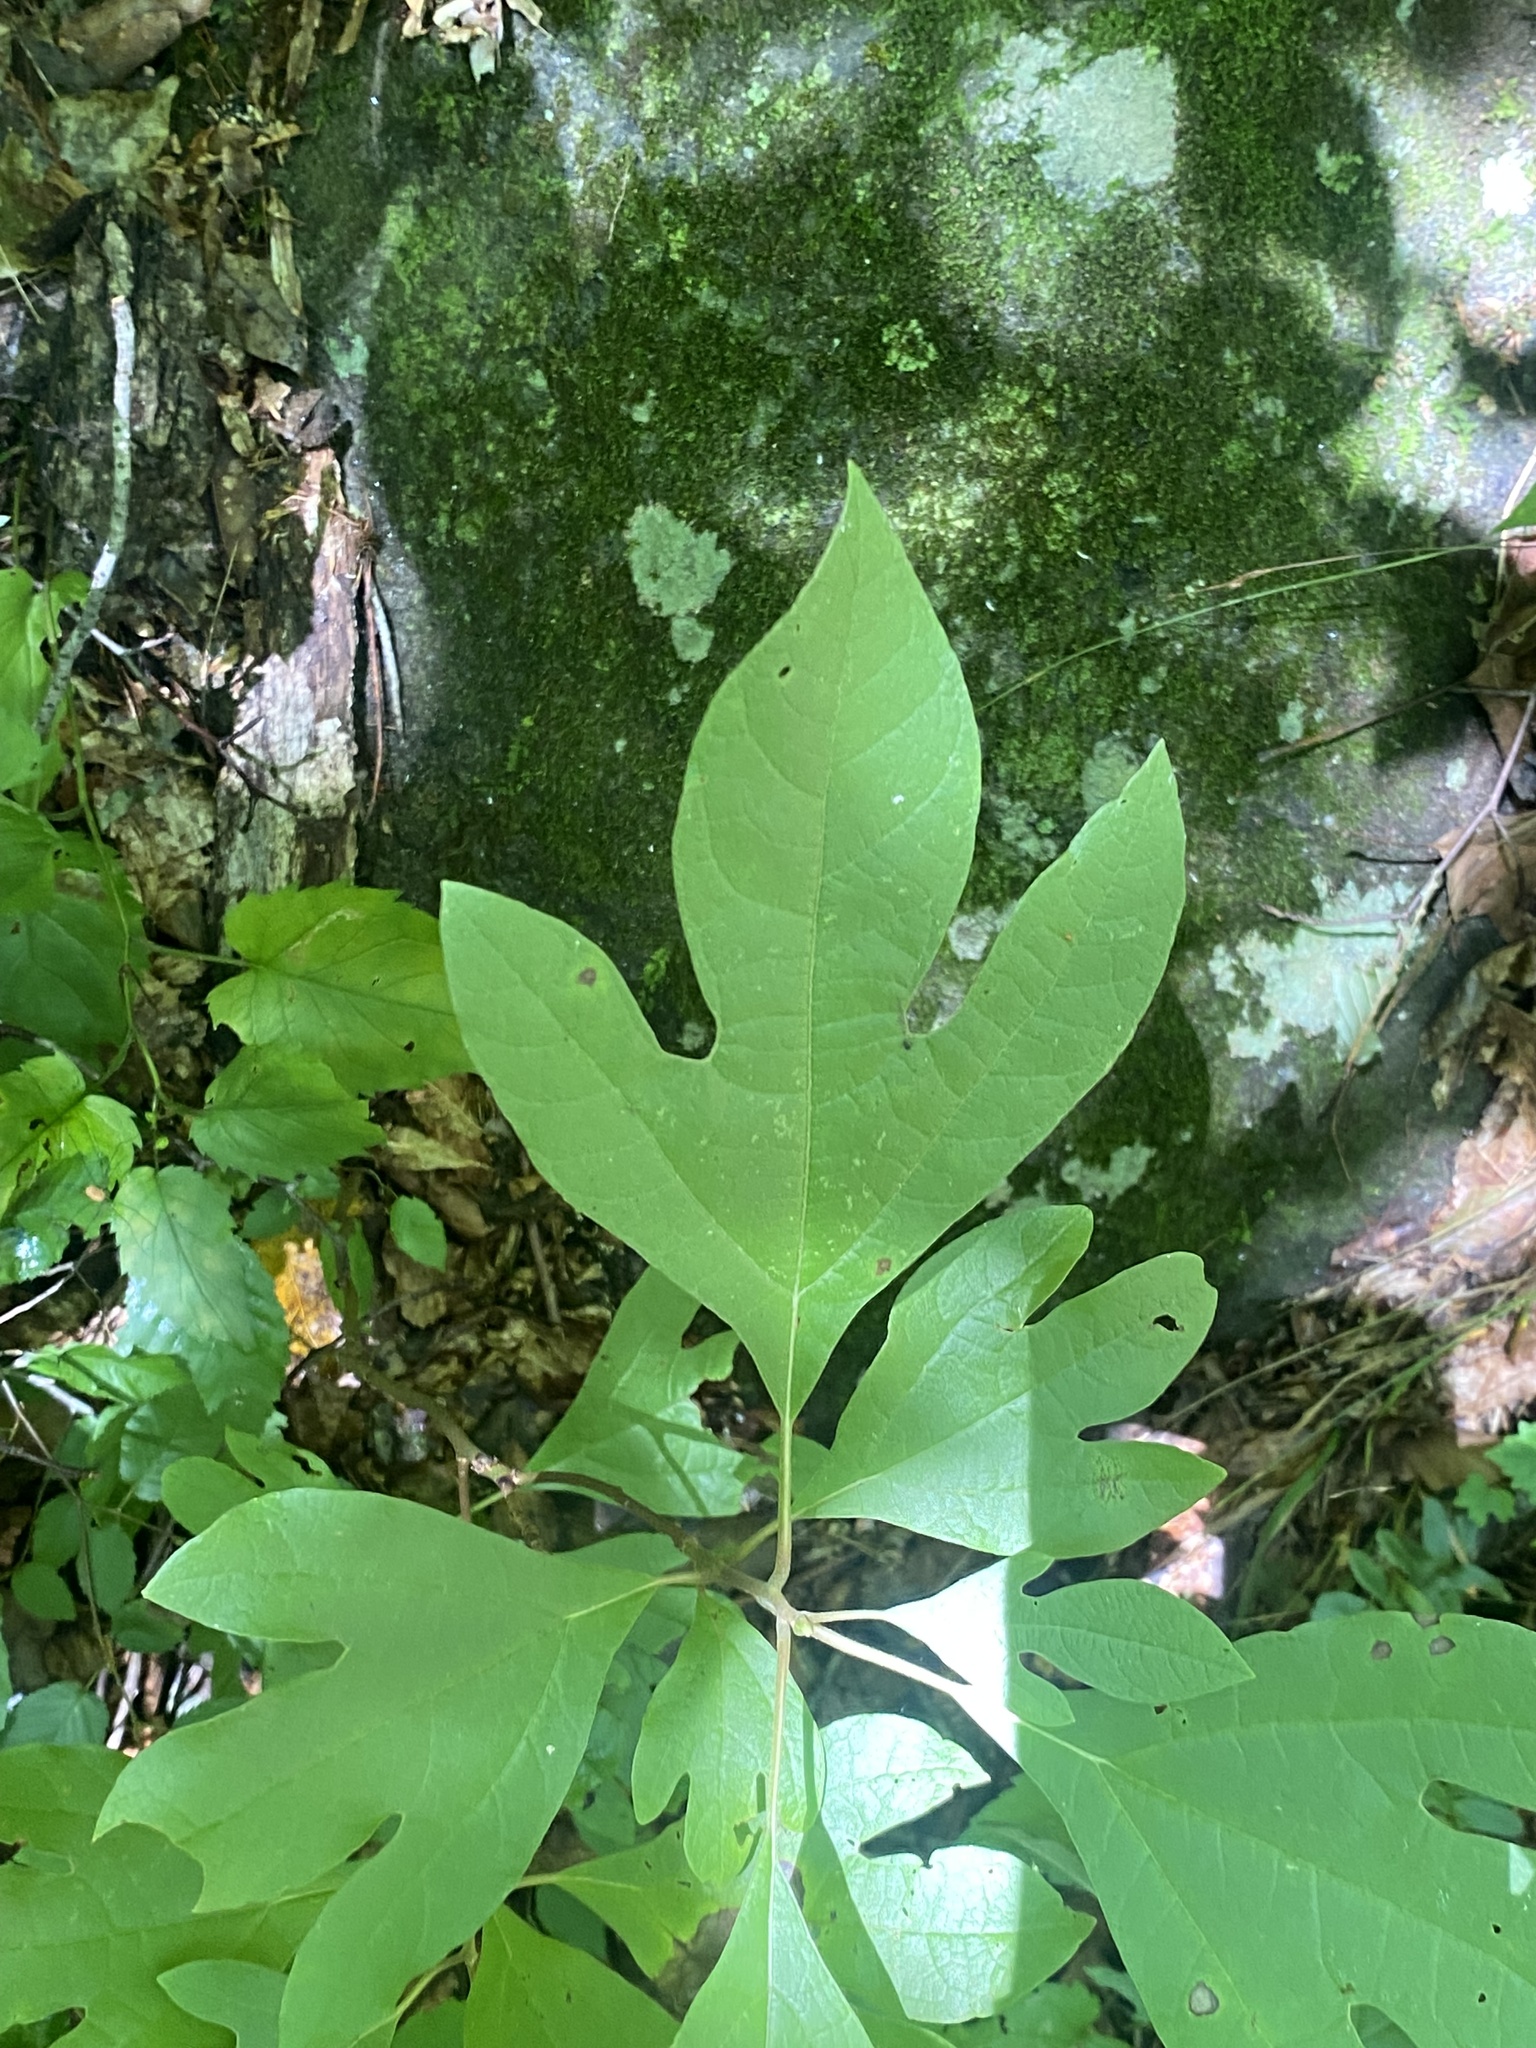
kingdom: Plantae
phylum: Tracheophyta
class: Magnoliopsida
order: Laurales
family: Lauraceae
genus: Sassafras
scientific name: Sassafras albidum
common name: Sassafras
